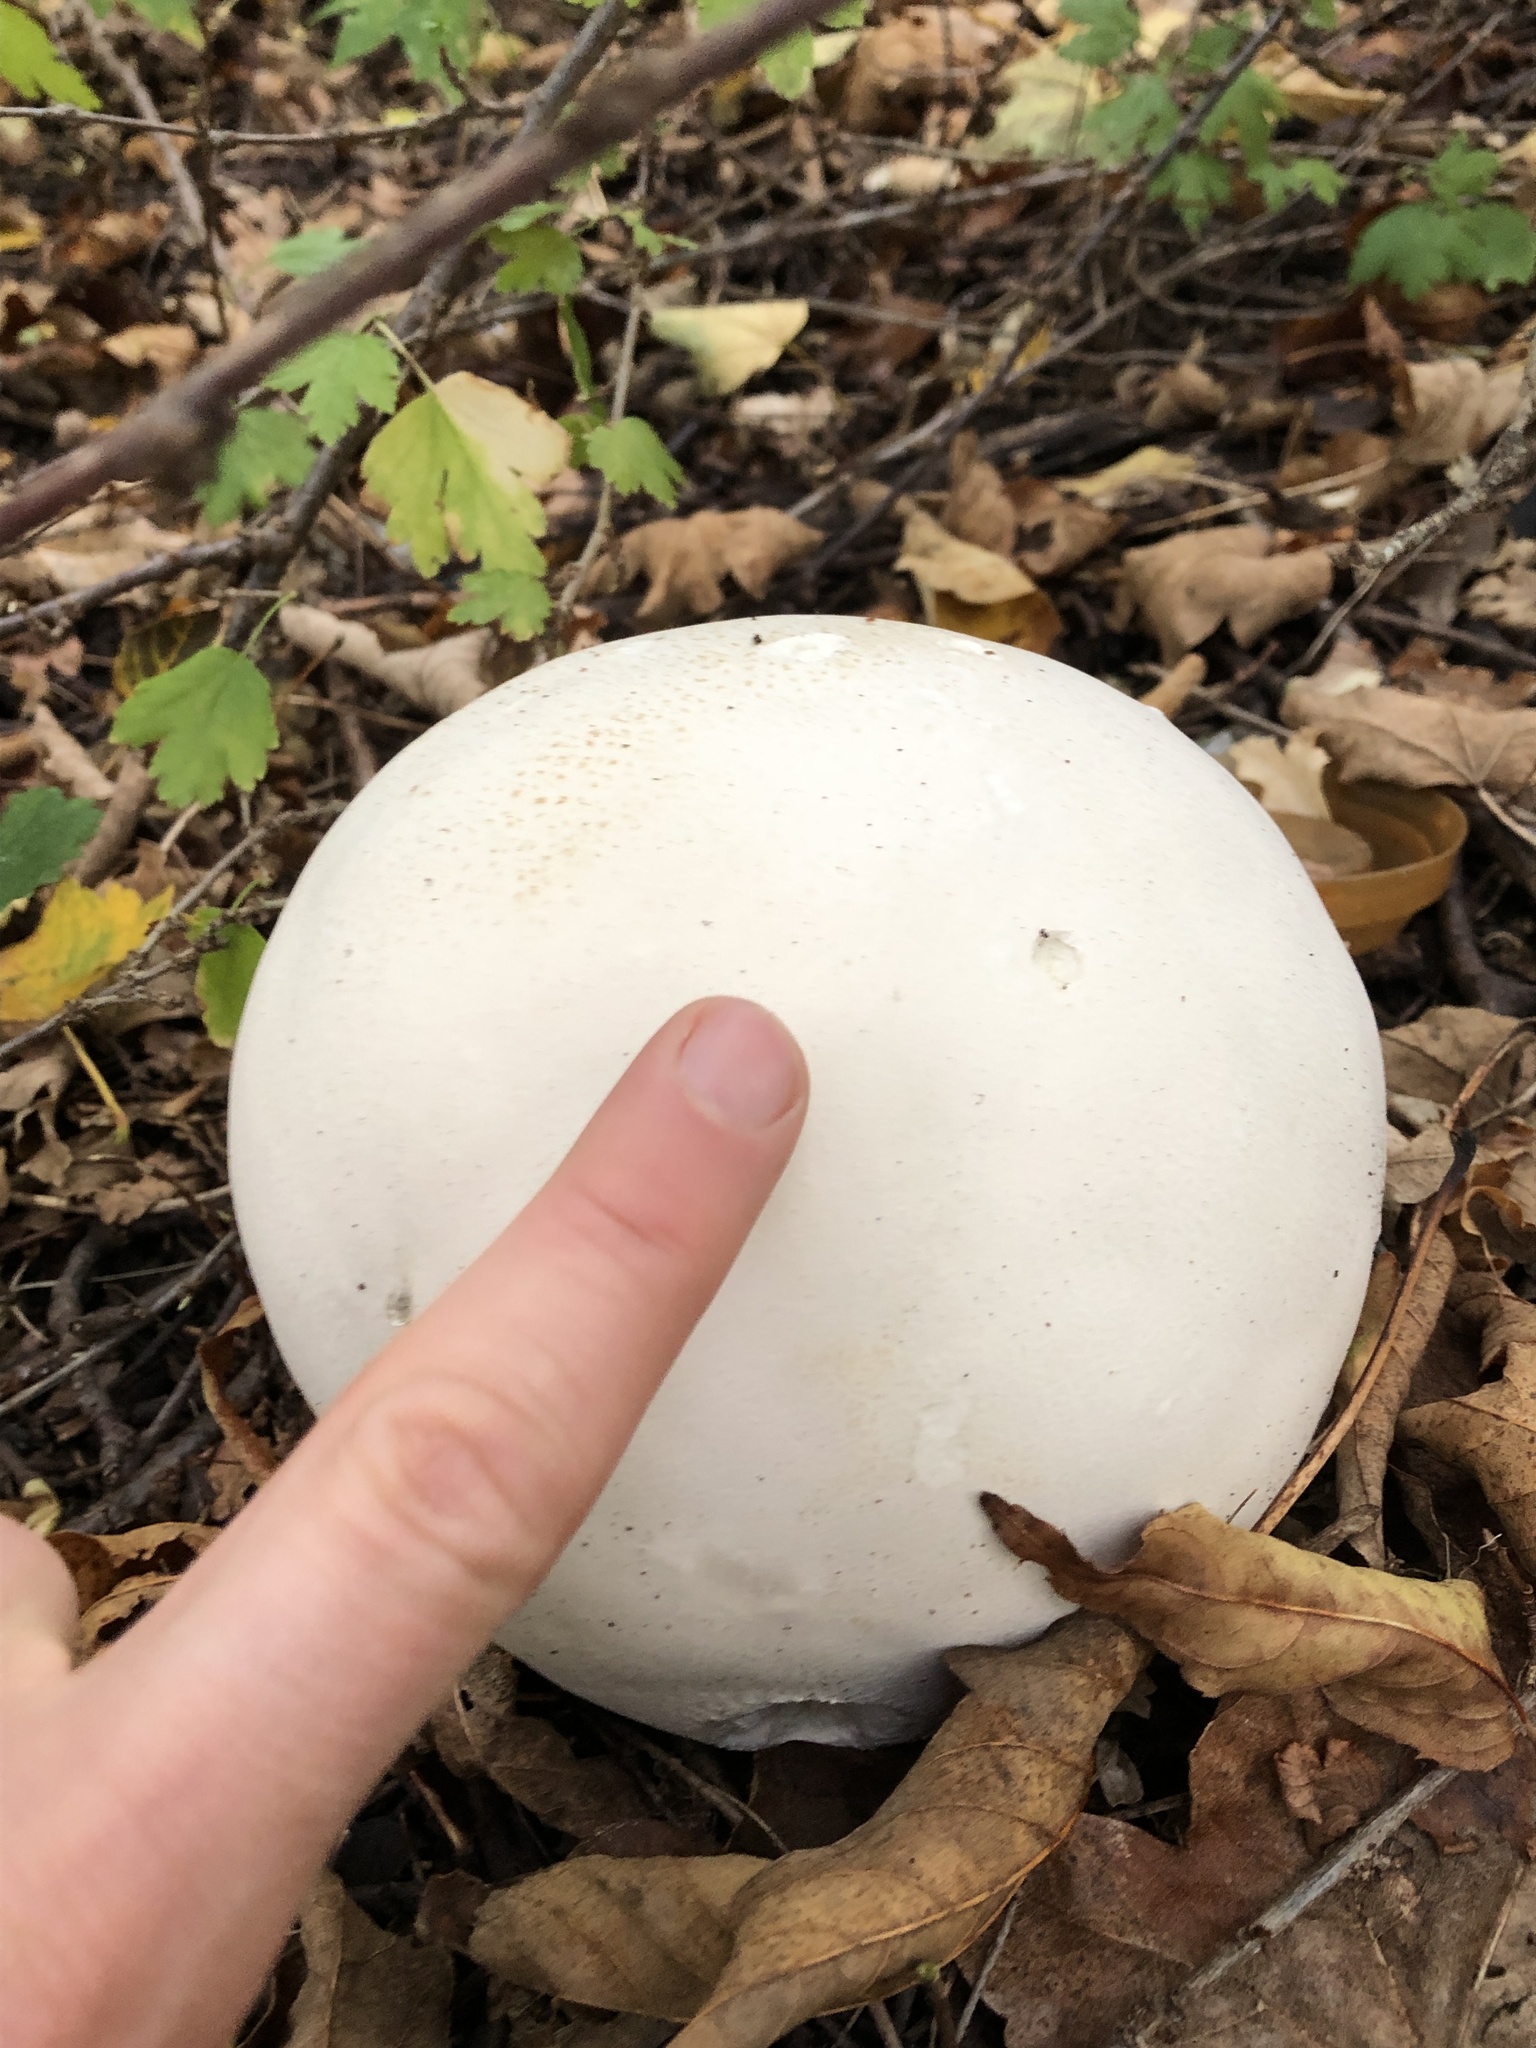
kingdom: Fungi
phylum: Basidiomycota
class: Agaricomycetes
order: Agaricales
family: Lycoperdaceae
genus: Calvatia
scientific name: Calvatia gigantea
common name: Giant puffball
